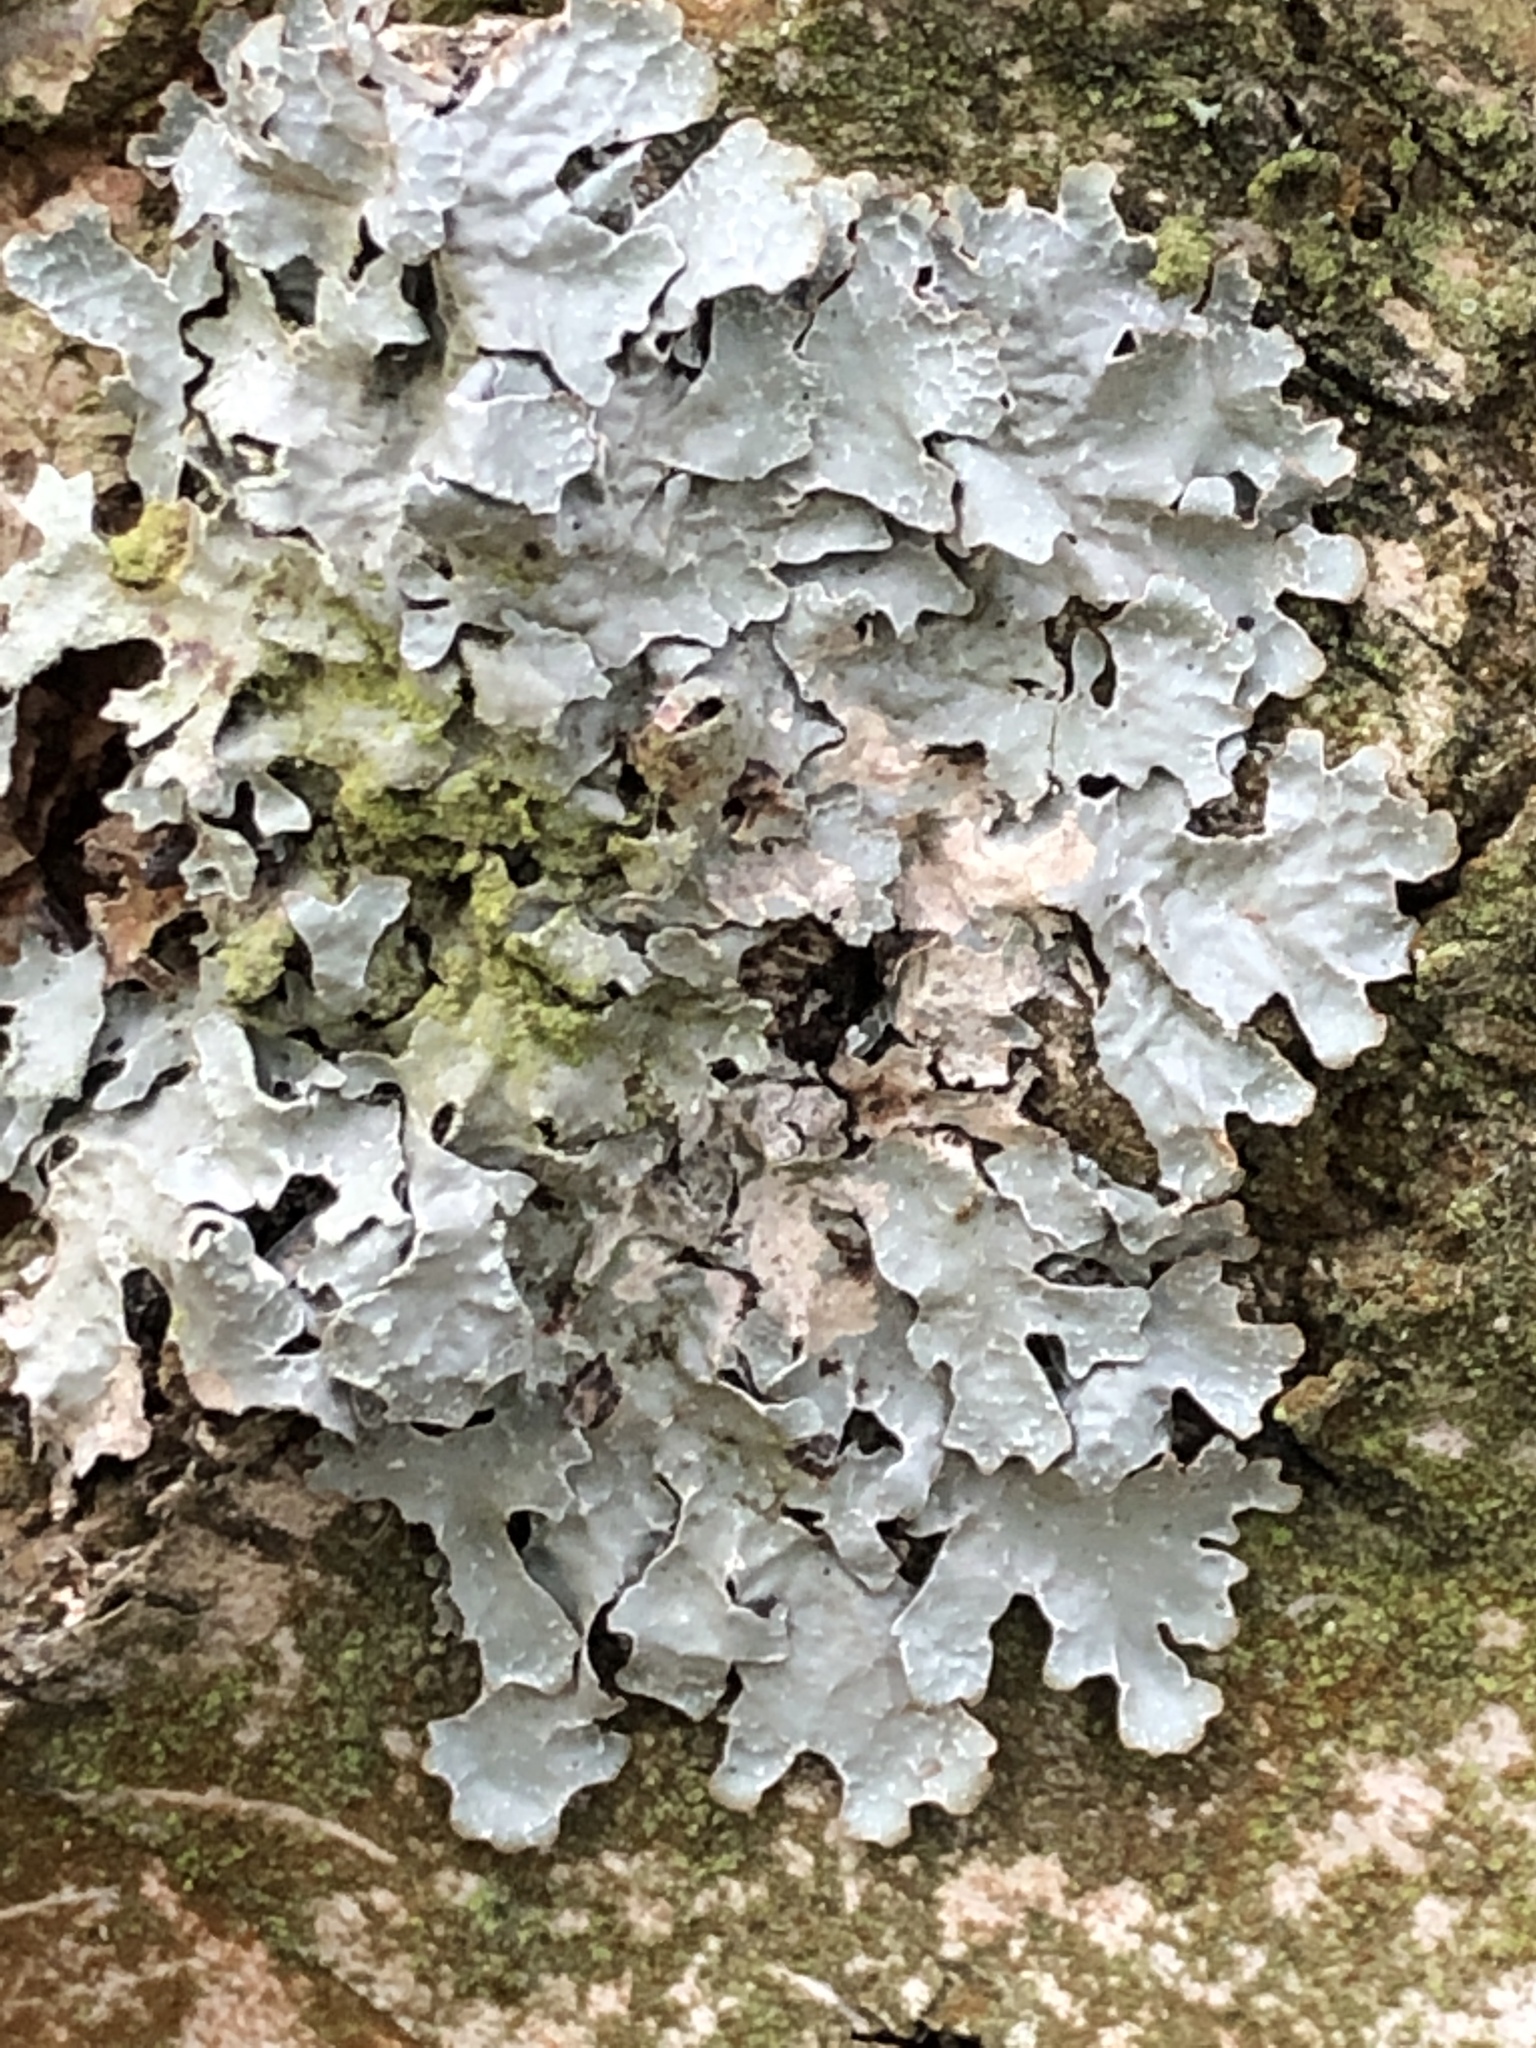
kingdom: Fungi
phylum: Ascomycota
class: Lecanoromycetes
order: Lecanorales
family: Parmeliaceae
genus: Parmelia
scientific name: Parmelia sulcata
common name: Netted shield lichen
